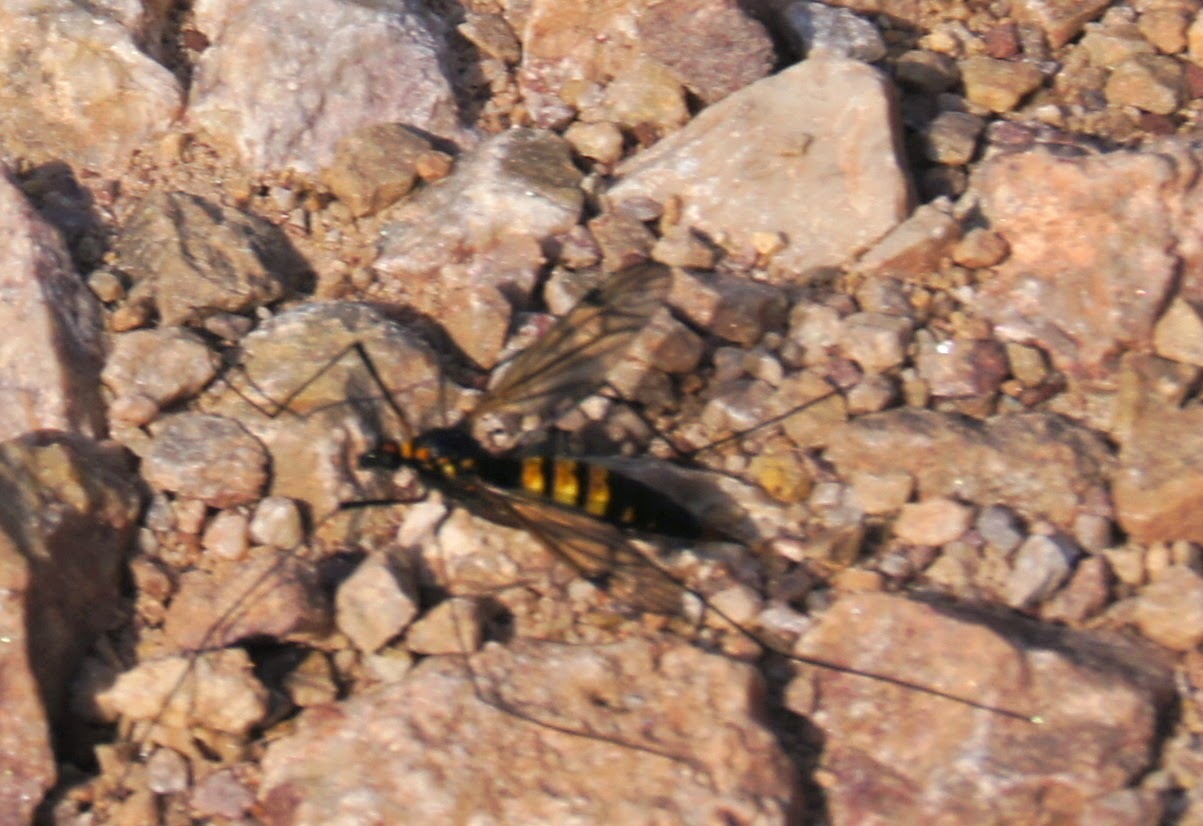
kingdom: Animalia
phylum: Arthropoda
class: Insecta
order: Diptera
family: Tipulidae
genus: Nephrotoma
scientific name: Nephrotoma crocata
